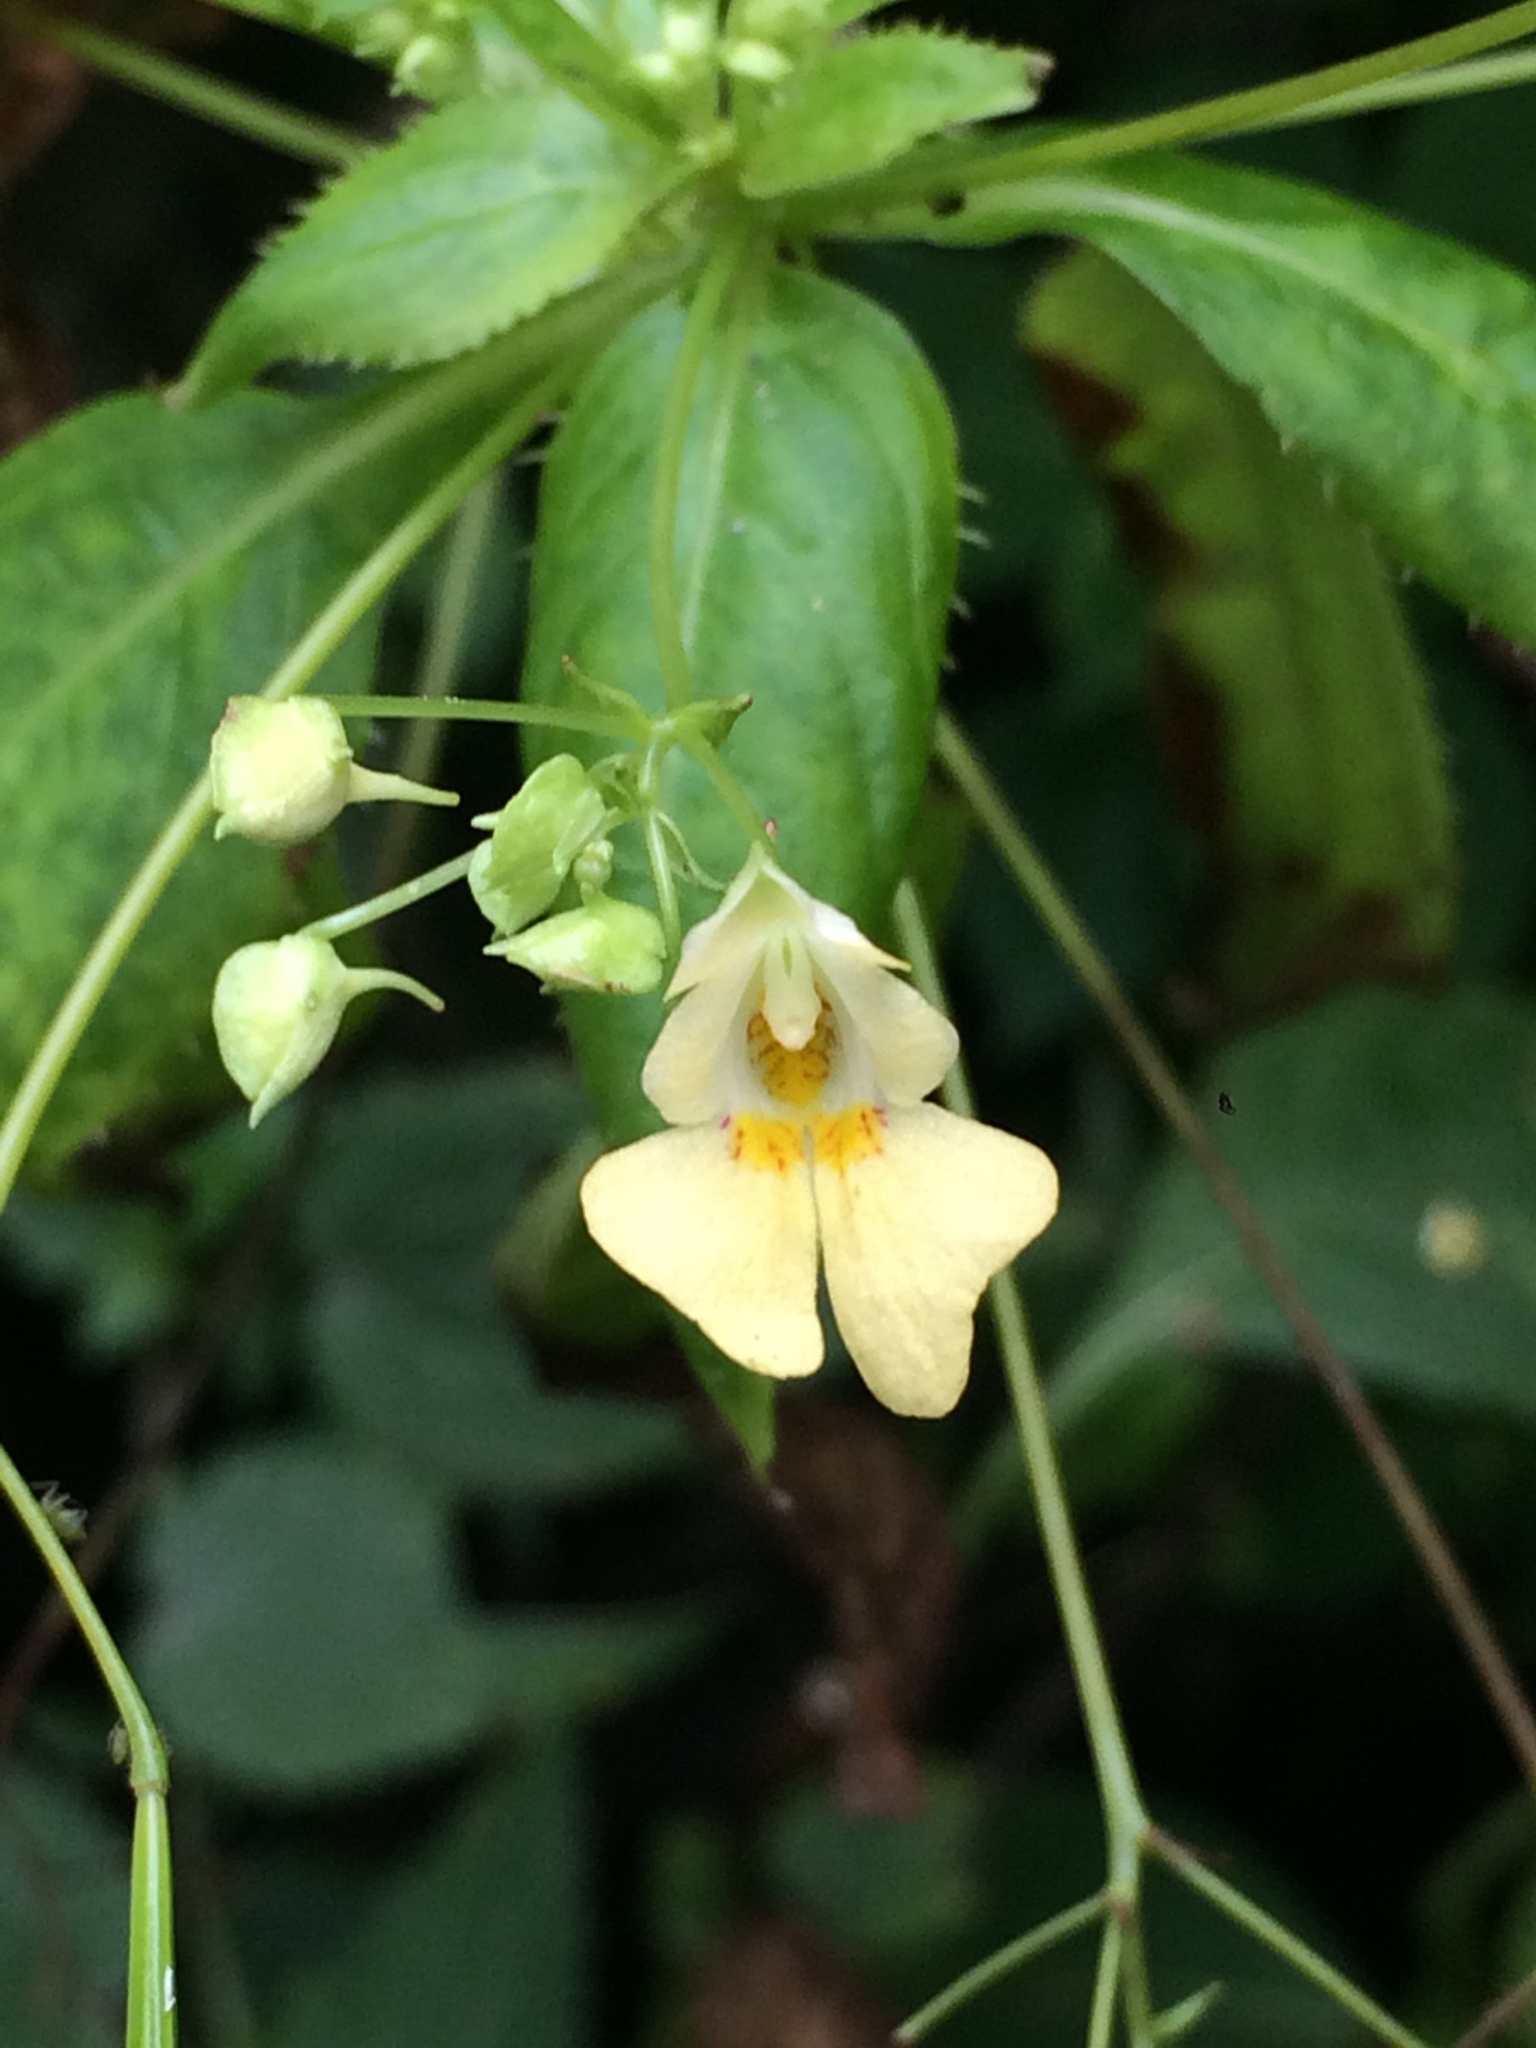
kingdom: Plantae
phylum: Tracheophyta
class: Magnoliopsida
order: Ericales
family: Balsaminaceae
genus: Impatiens
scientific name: Impatiens parviflora
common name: Small balsam
